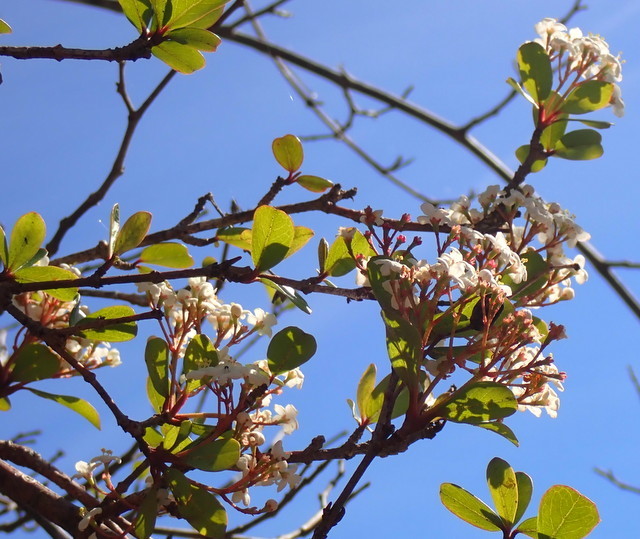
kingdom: Plantae
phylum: Tracheophyta
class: Magnoliopsida
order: Dipsacales
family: Viburnaceae
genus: Viburnum
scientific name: Viburnum obovatum
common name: Walter's viburnum
